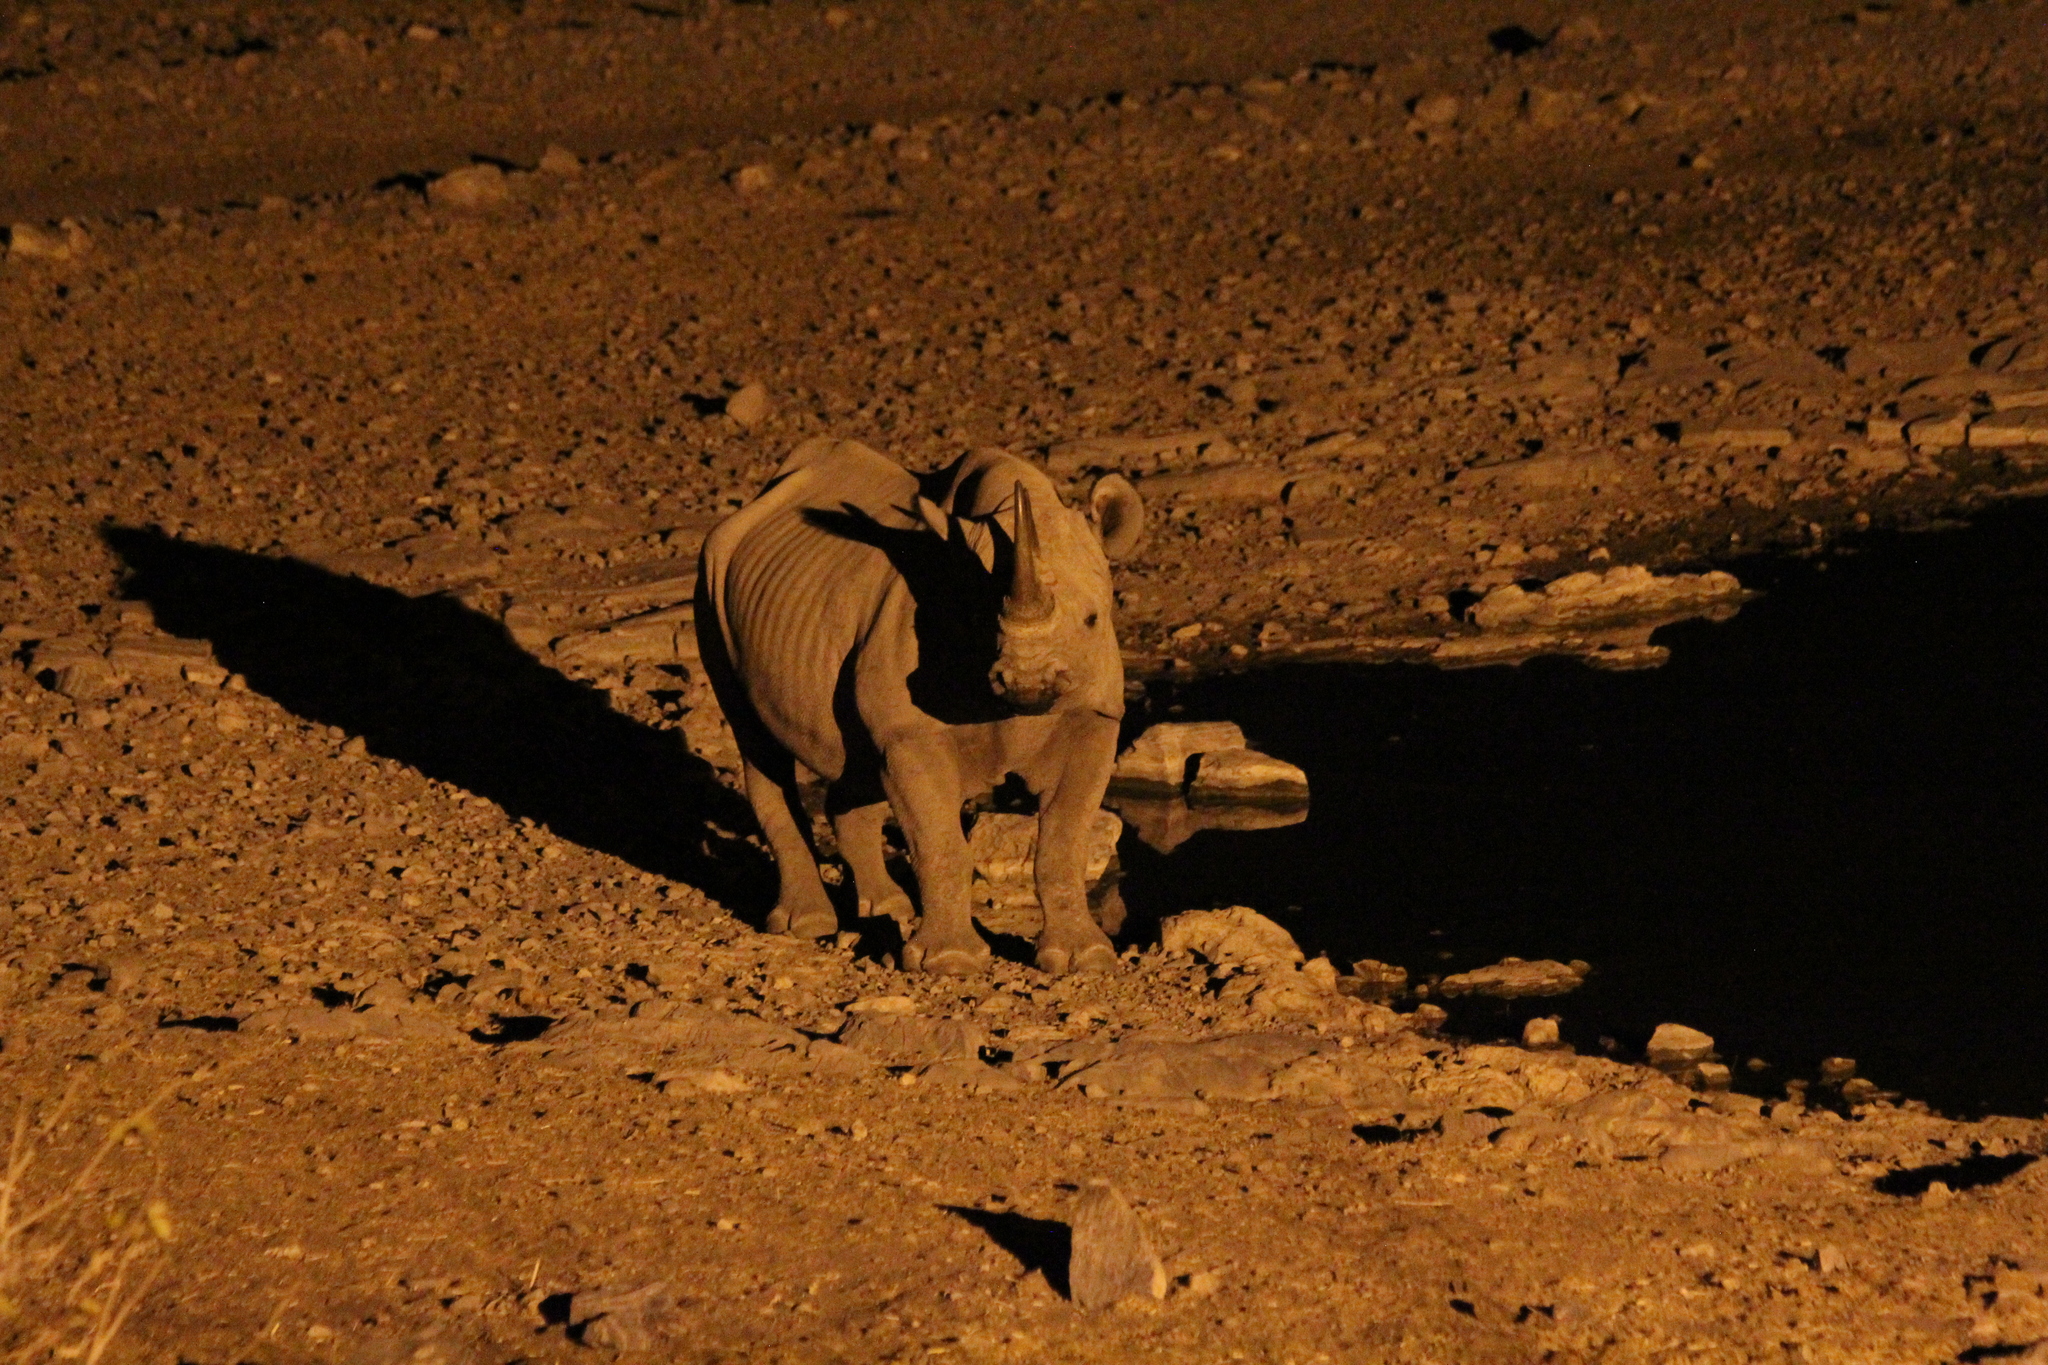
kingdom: Animalia
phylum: Chordata
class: Mammalia
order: Perissodactyla
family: Rhinocerotidae
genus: Diceros
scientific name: Diceros bicornis
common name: Black rhinoceros
